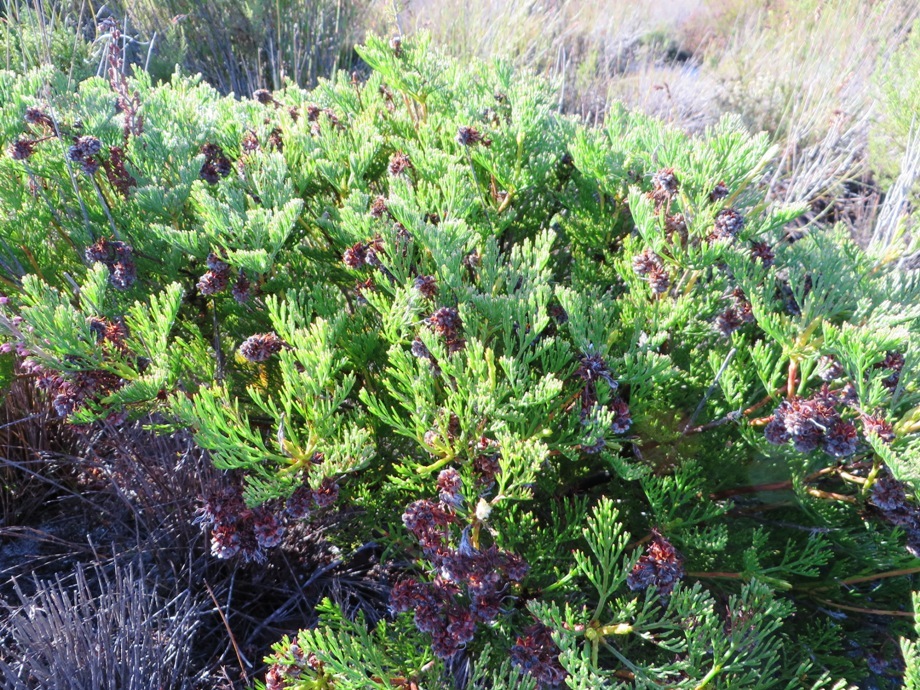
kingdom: Plantae
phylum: Tracheophyta
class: Magnoliopsida
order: Proteales
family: Proteaceae
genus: Serruria
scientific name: Serruria elongata
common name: Long-stalk spiderhead
